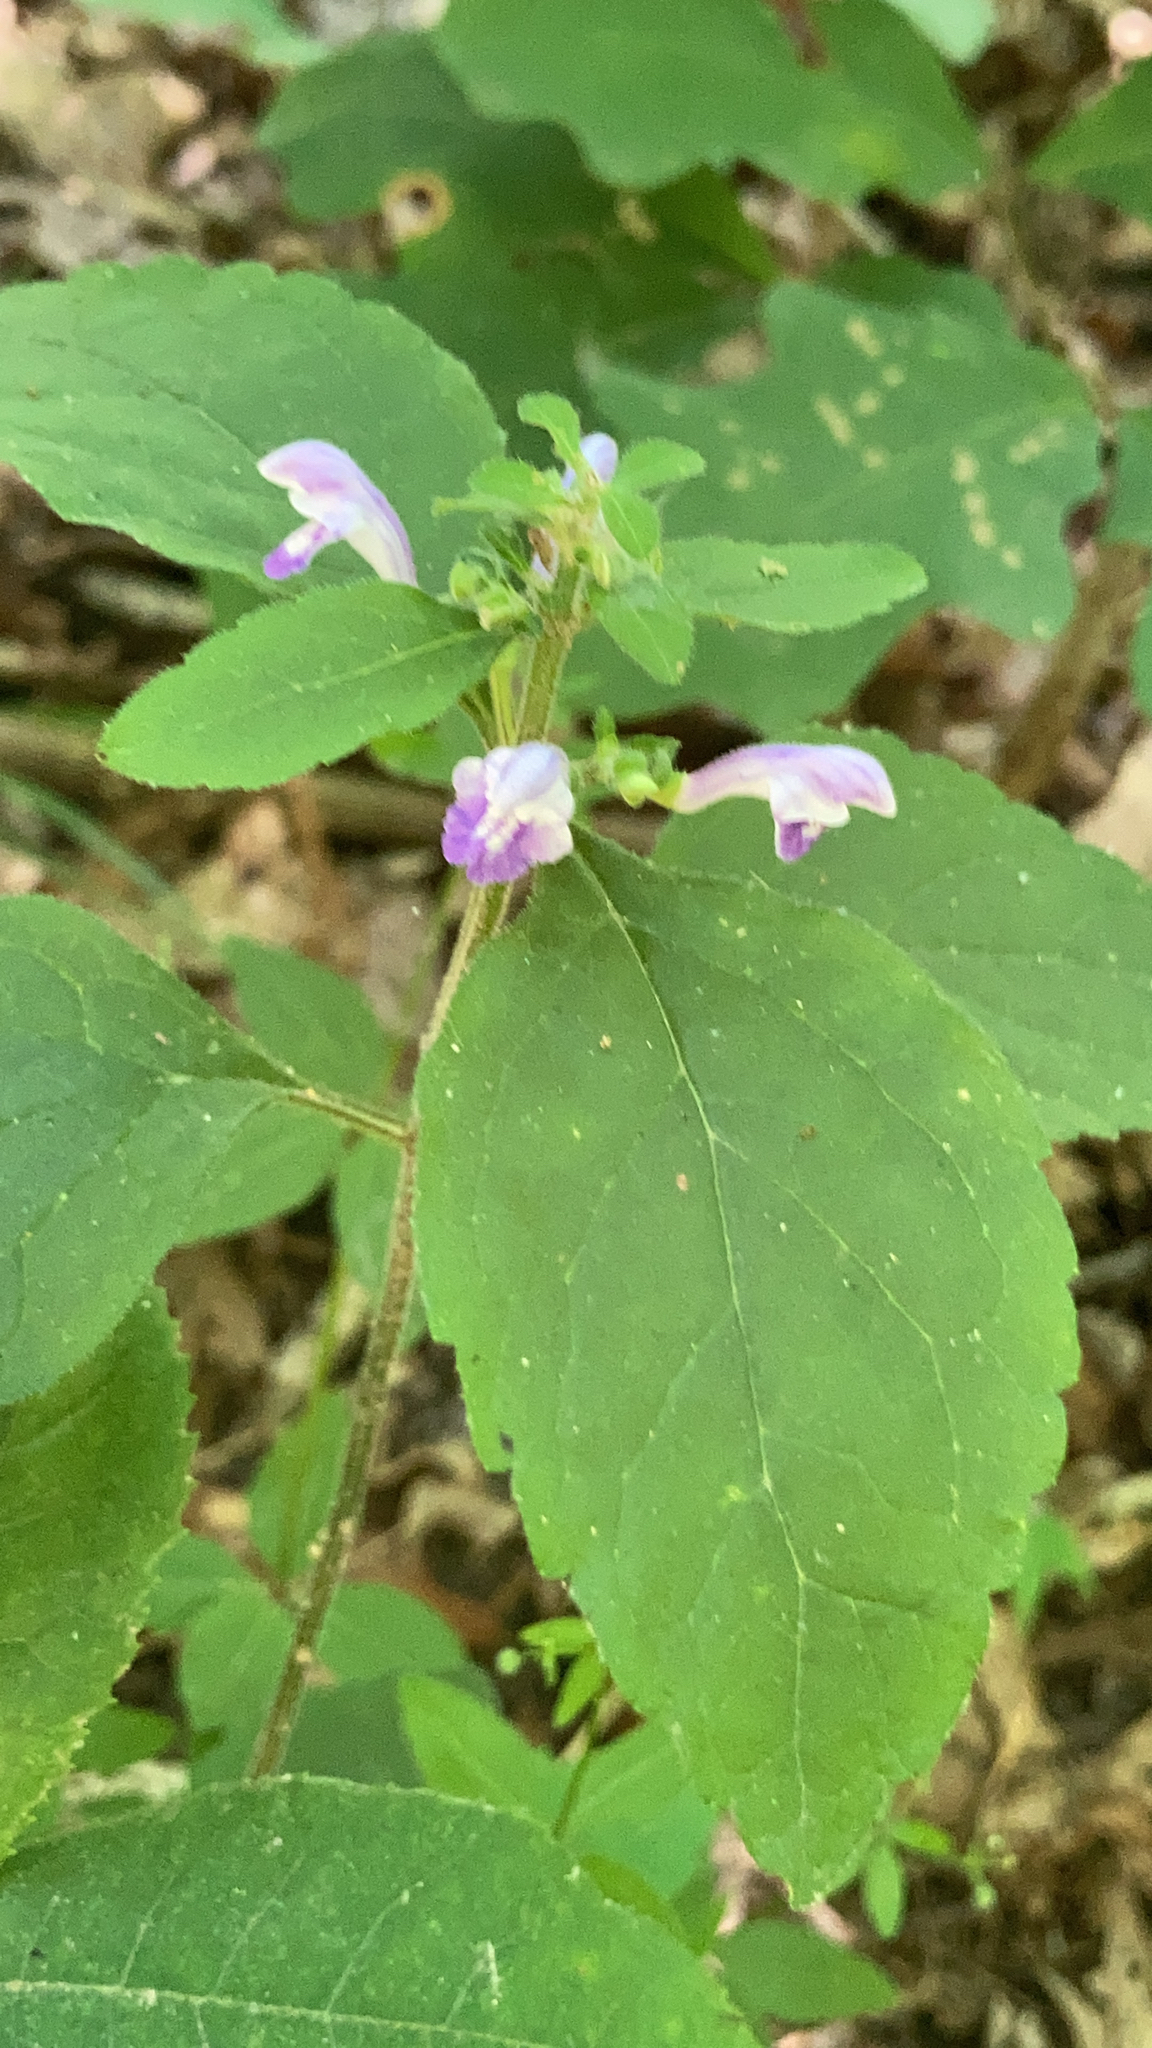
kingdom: Plantae
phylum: Tracheophyta
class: Magnoliopsida
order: Lamiales
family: Lamiaceae
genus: Scutellaria
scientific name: Scutellaria elliptica
